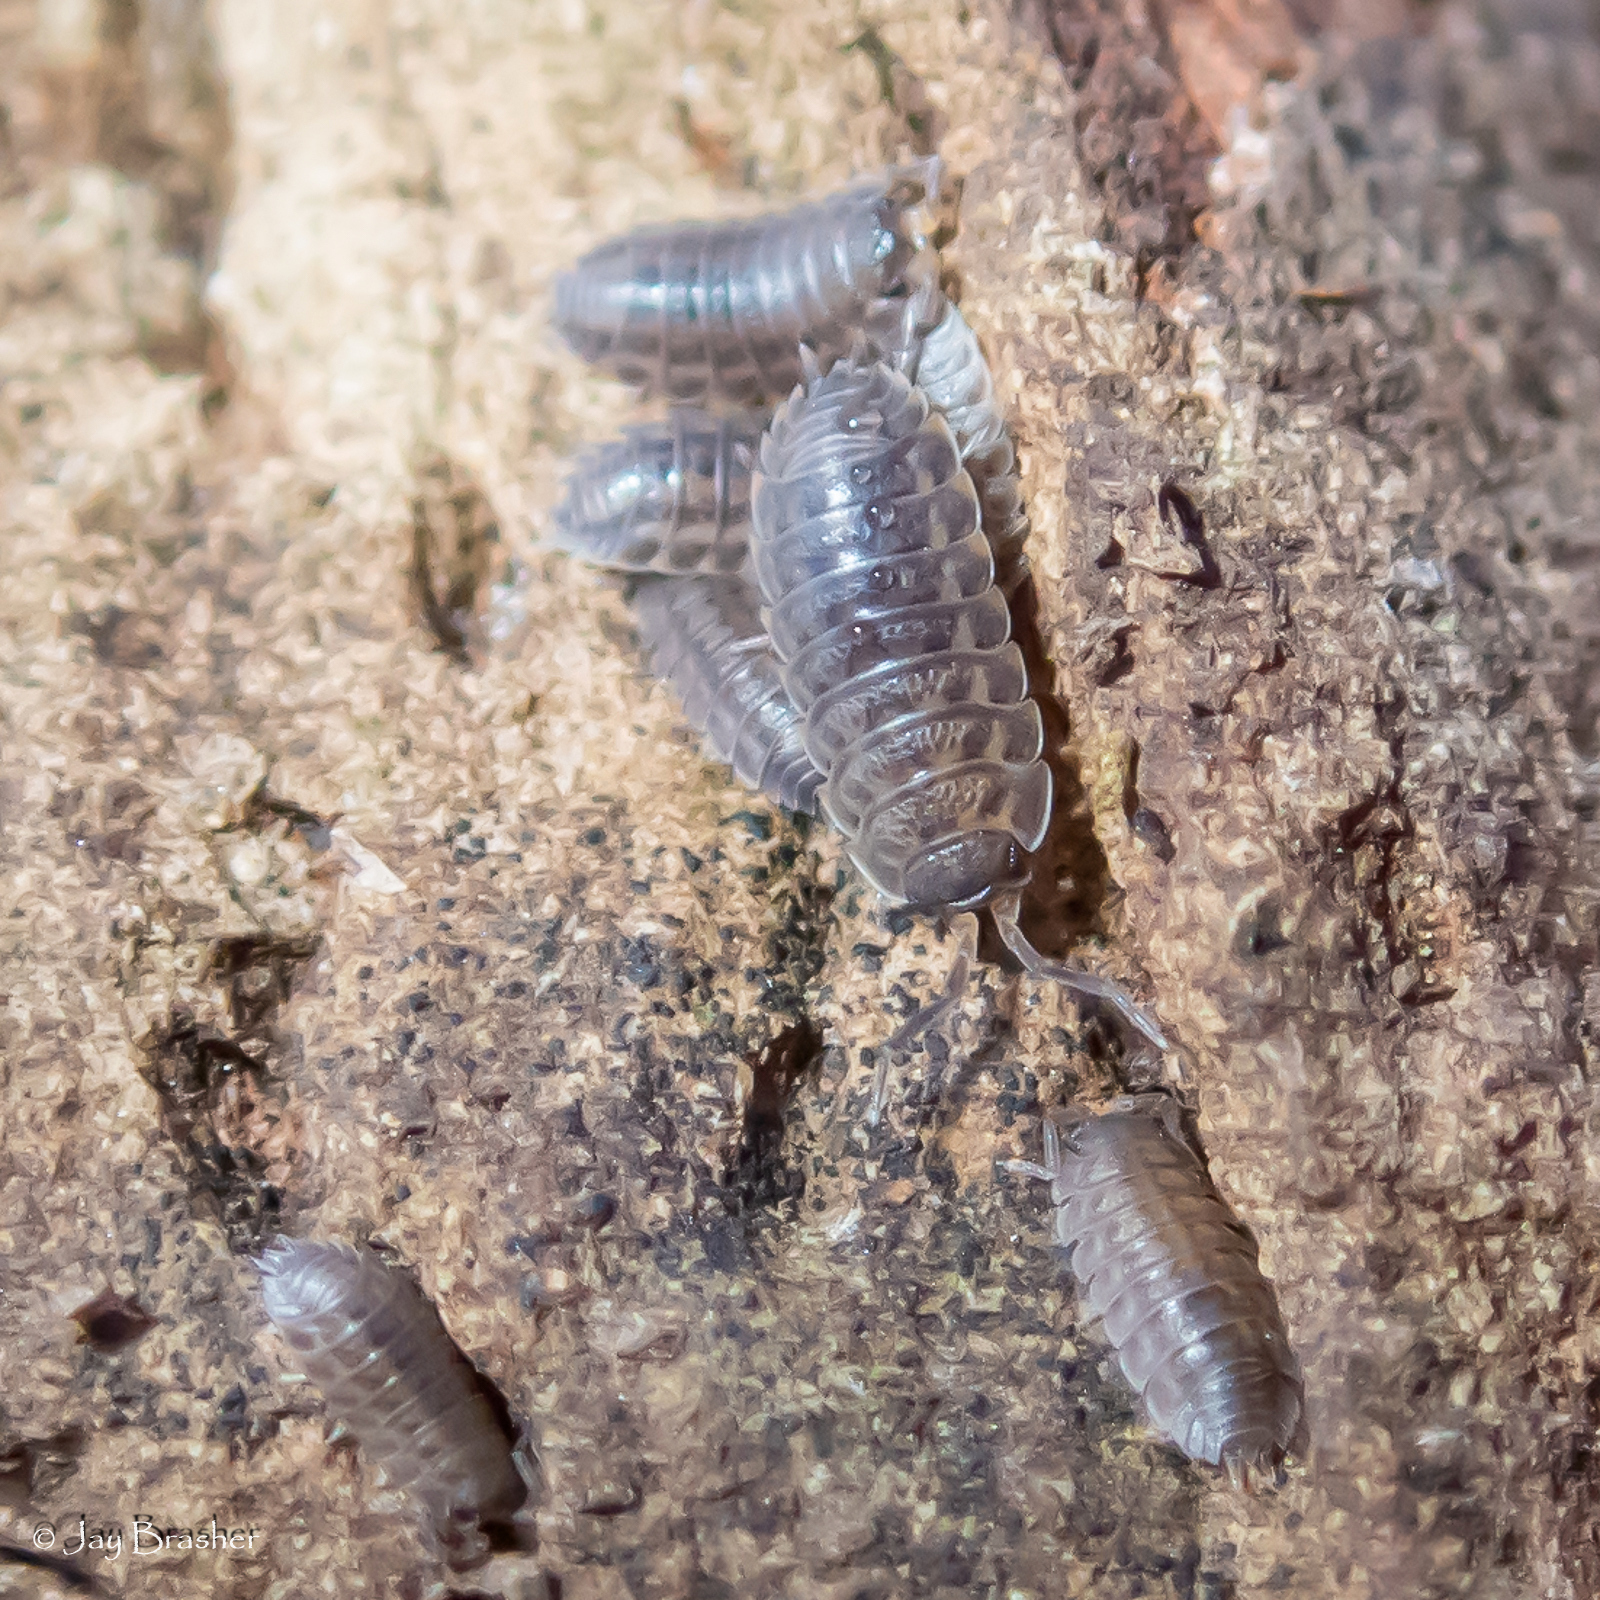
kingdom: Animalia
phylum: Arthropoda
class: Malacostraca
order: Isopoda
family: Trachelipodidae
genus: Trachelipus
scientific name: Trachelipus rathkii
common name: Isopod
